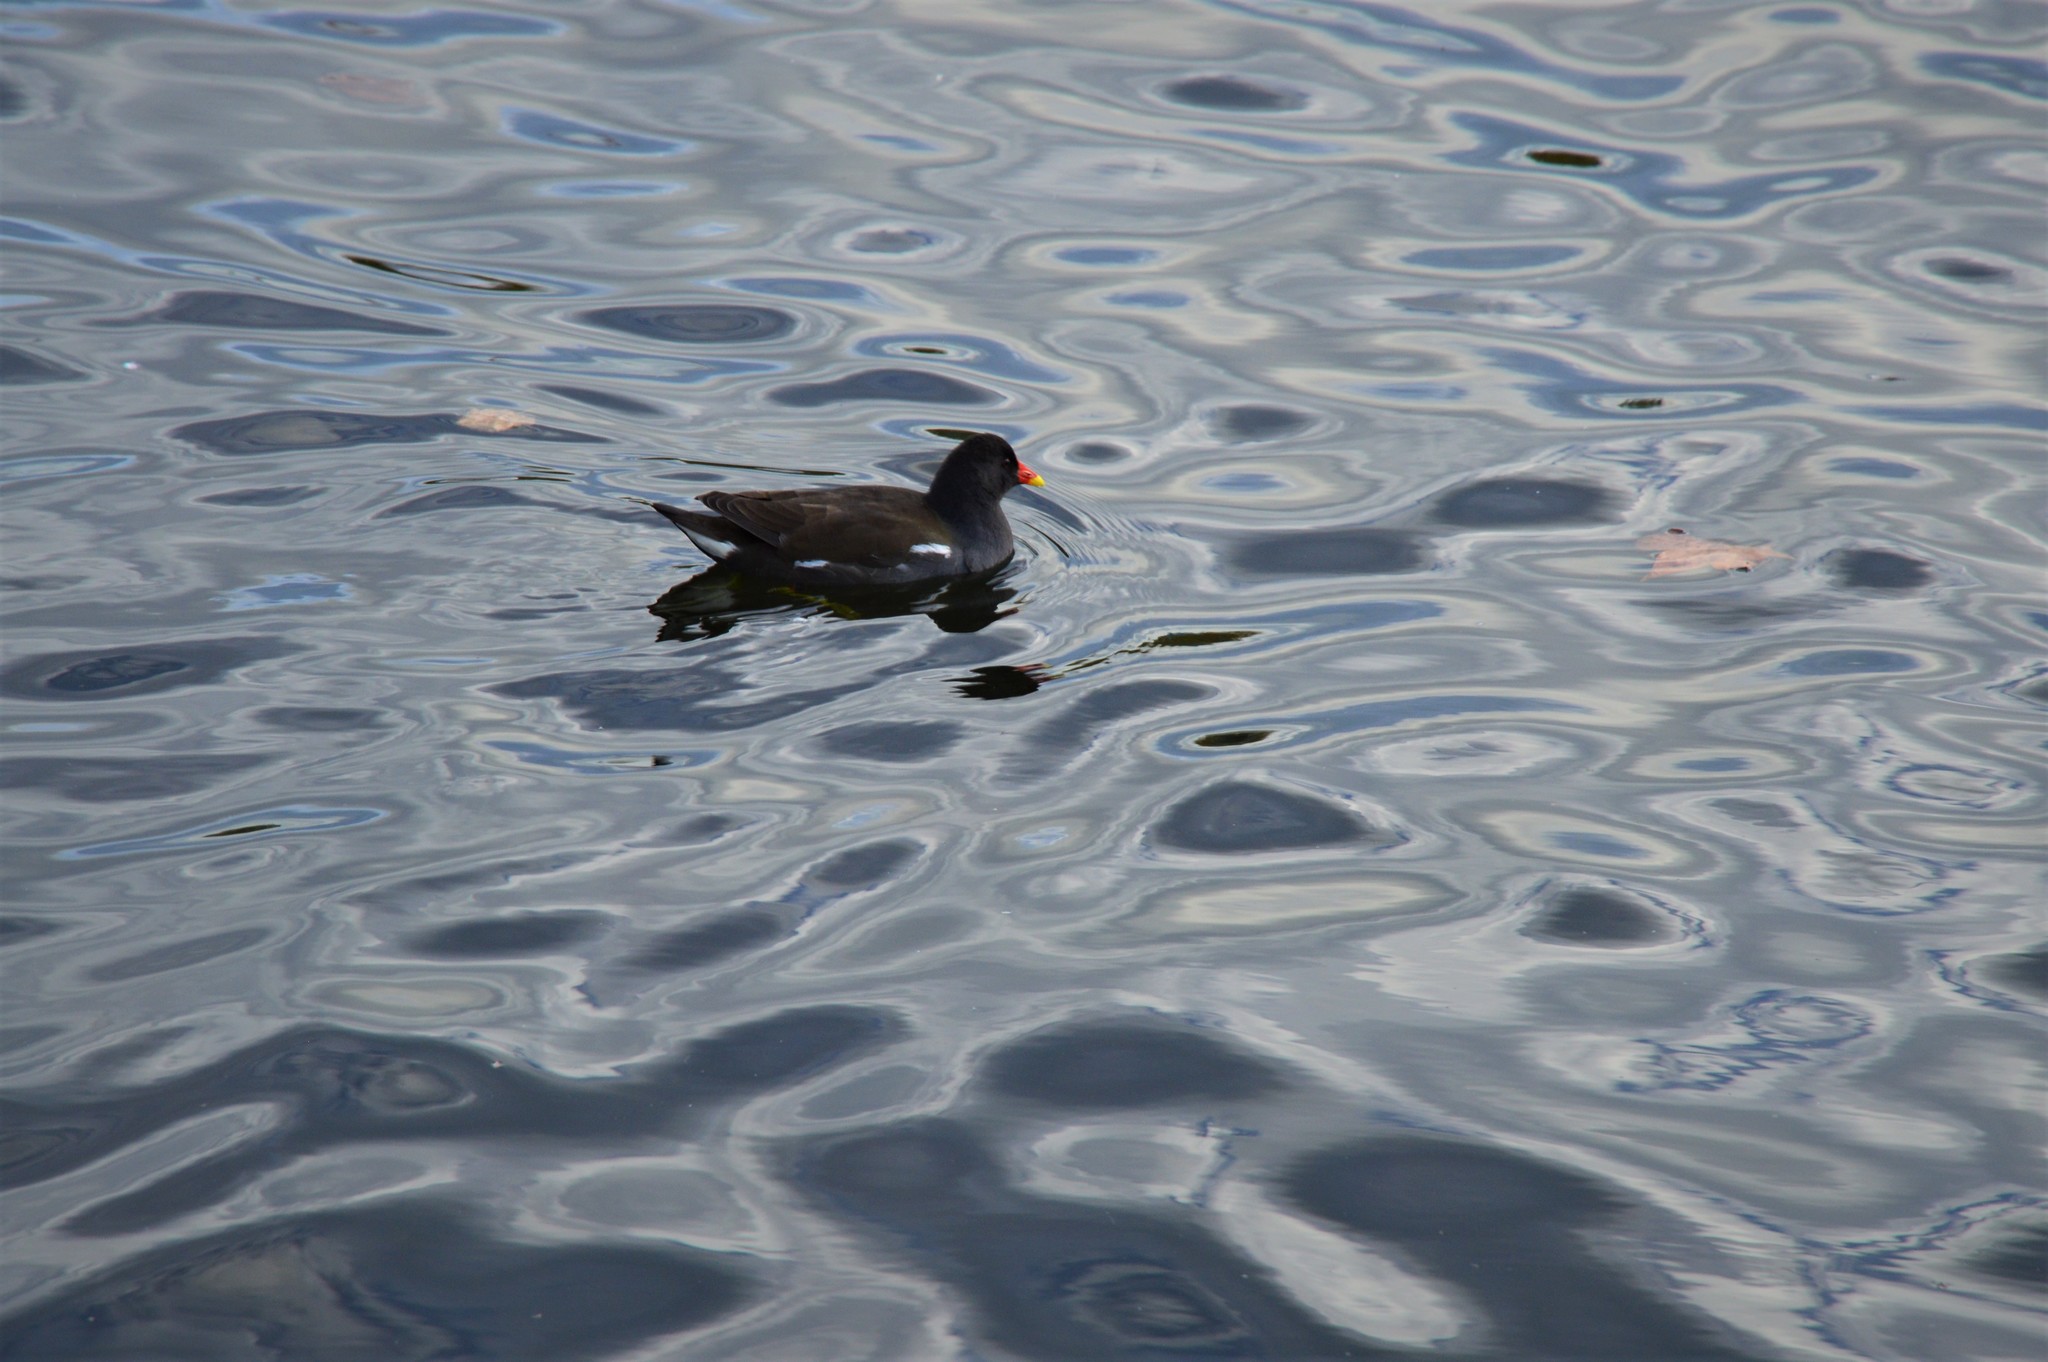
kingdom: Animalia
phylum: Chordata
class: Aves
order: Gruiformes
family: Rallidae
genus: Gallinula
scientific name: Gallinula chloropus
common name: Common moorhen
